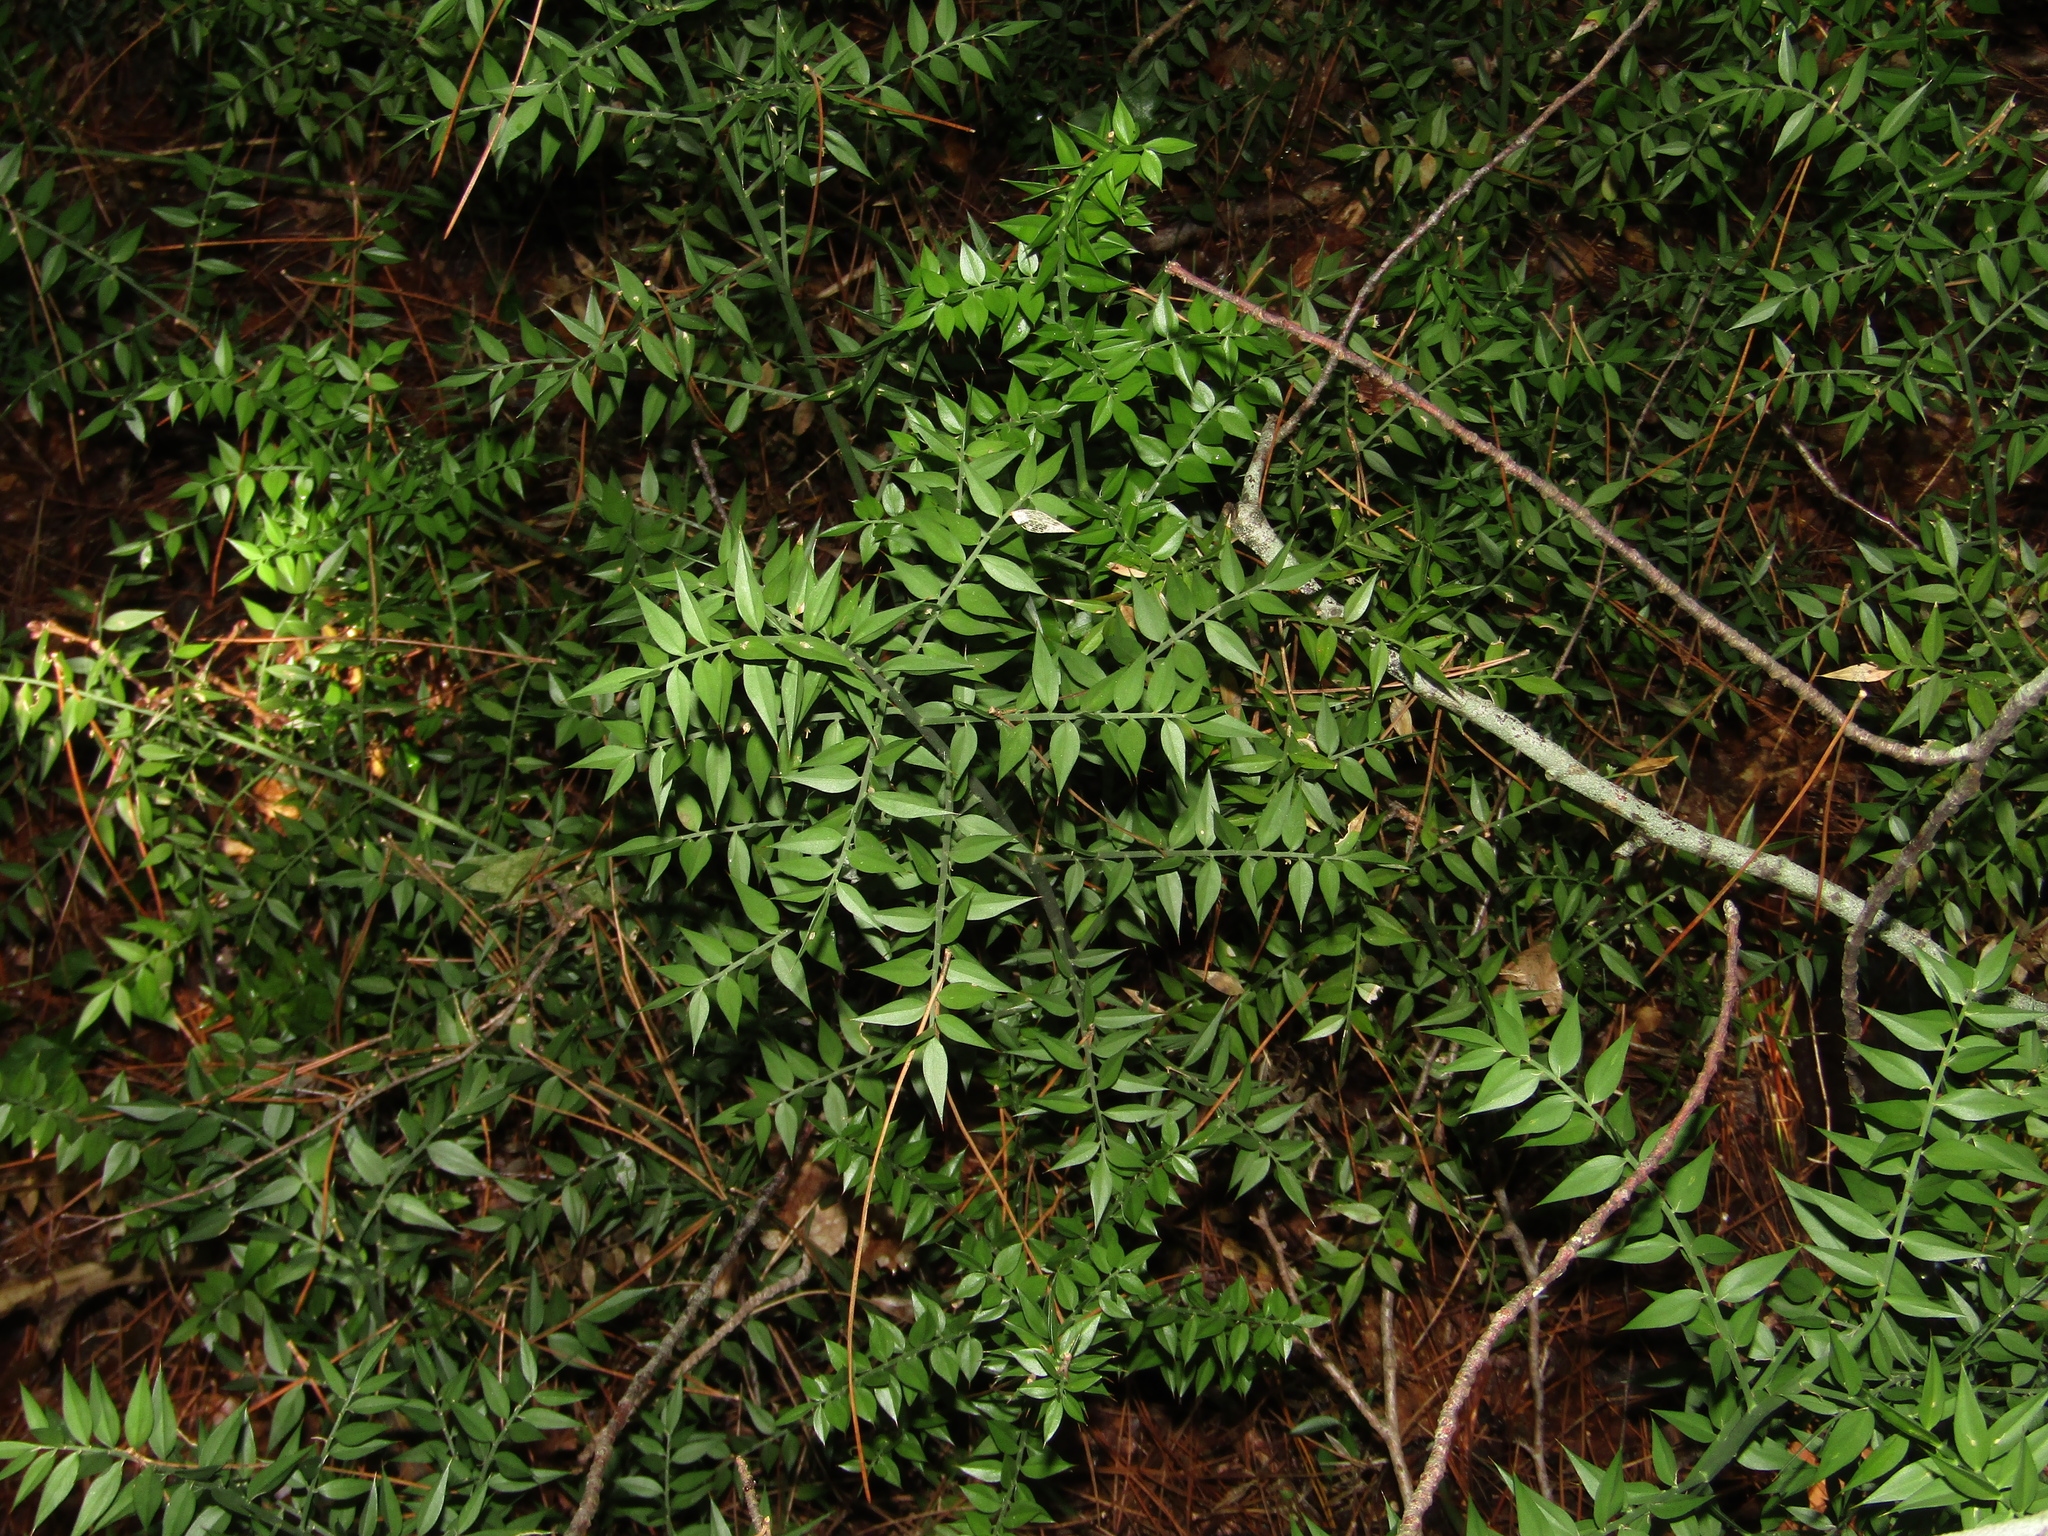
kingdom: Plantae
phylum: Tracheophyta
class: Liliopsida
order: Asparagales
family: Asparagaceae
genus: Ruscus
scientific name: Ruscus aculeatus
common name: Butcher's-broom
